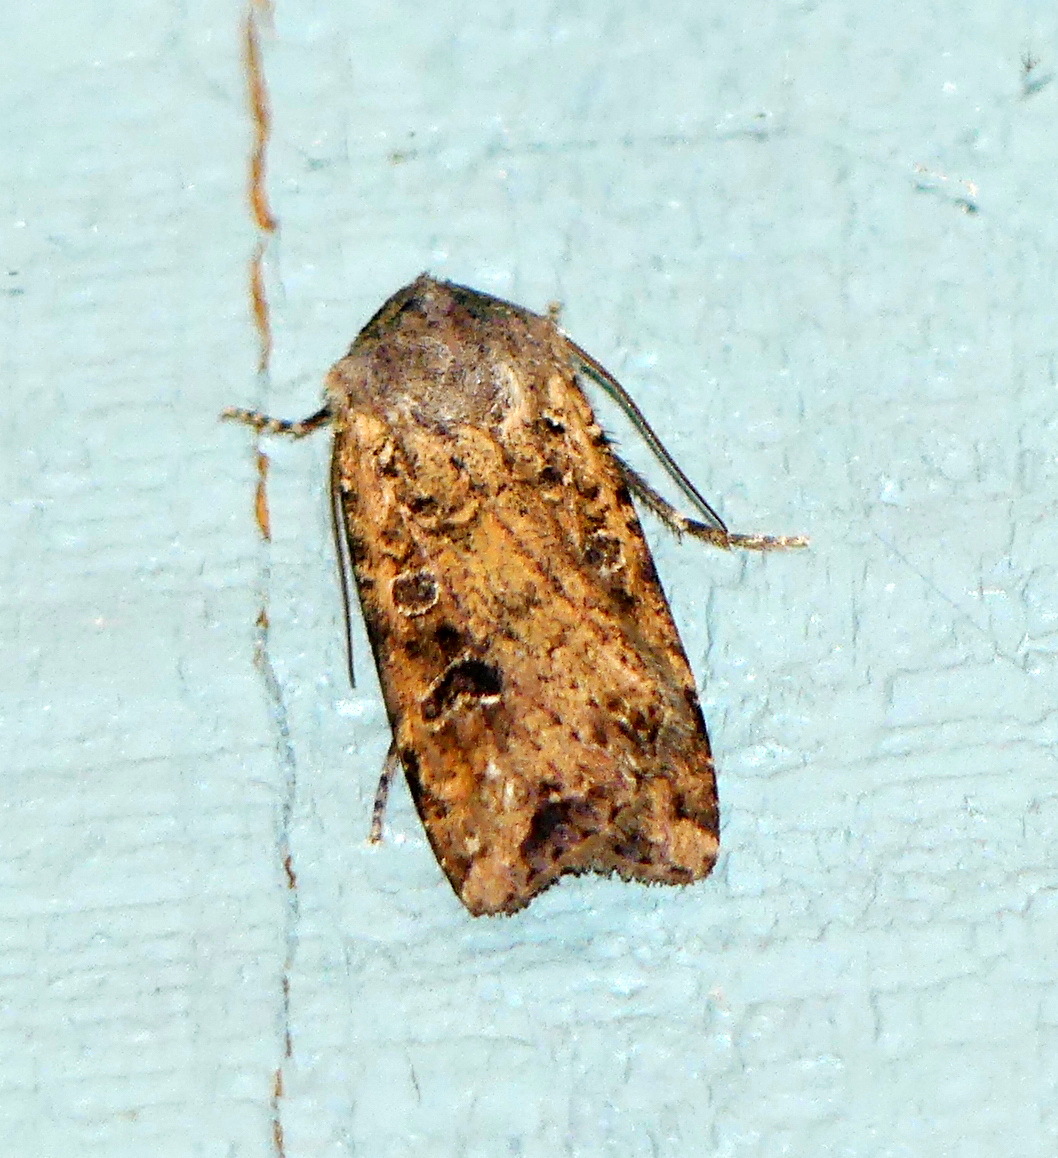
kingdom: Animalia
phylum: Arthropoda
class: Insecta
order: Lepidoptera
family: Noctuidae
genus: Euxoa
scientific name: Euxoa ochrogaster
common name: Red-backed cutworm moth
